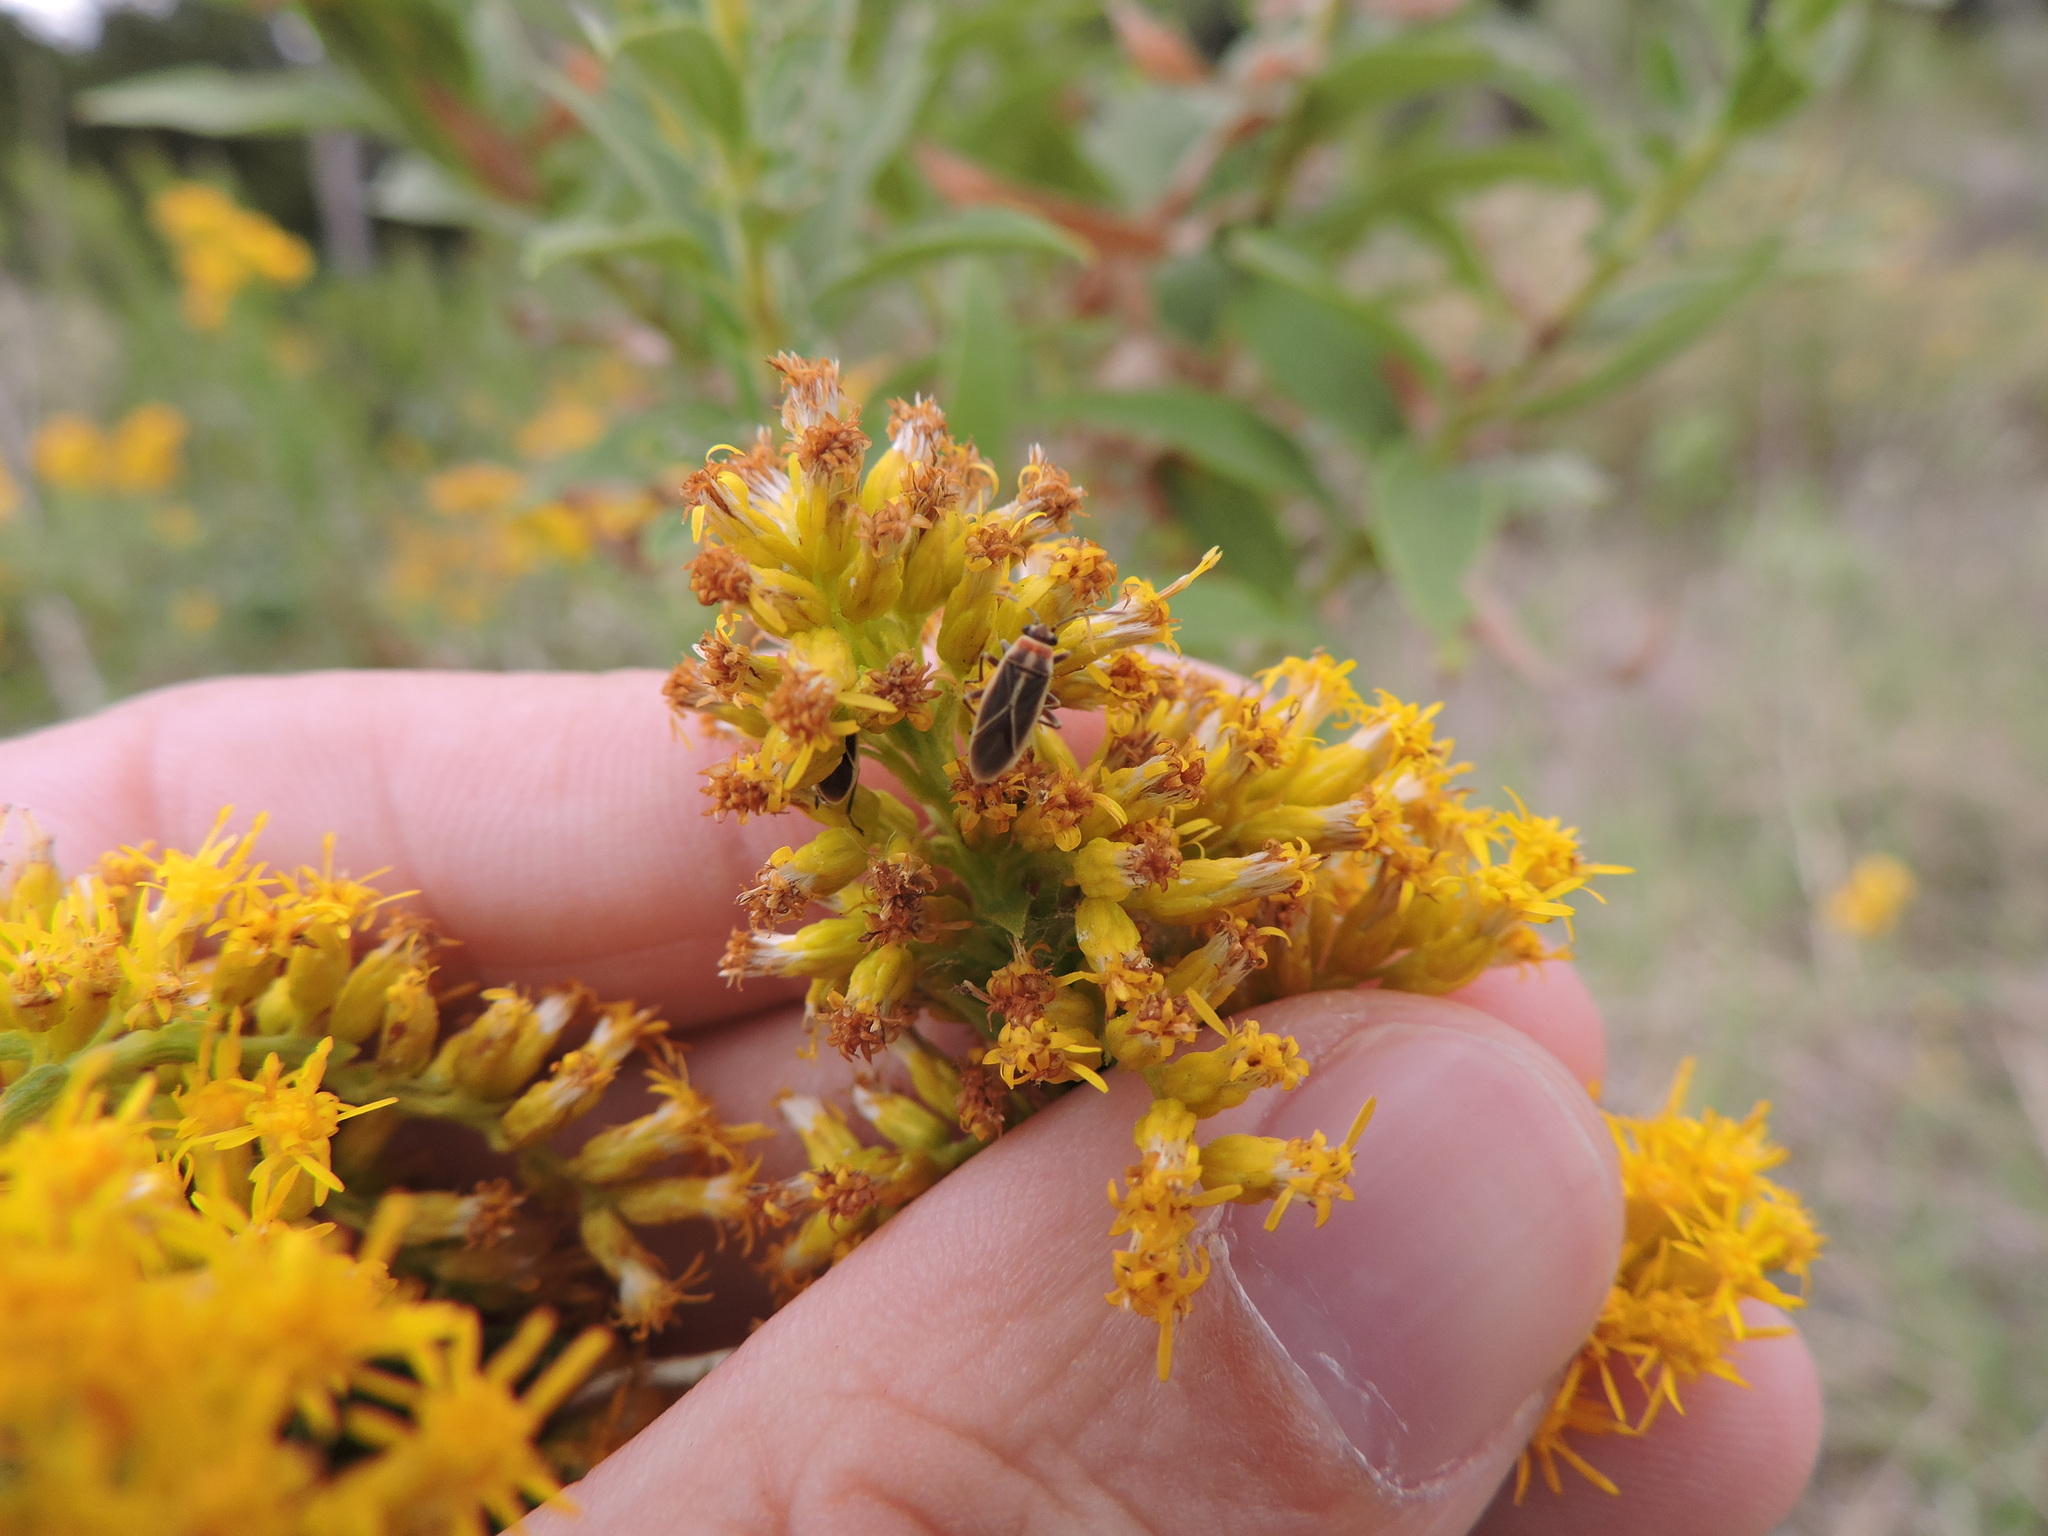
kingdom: Animalia
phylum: Arthropoda
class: Insecta
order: Hemiptera
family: Lygaeidae
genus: Ochrimnus
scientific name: Ochrimnus mimulus
